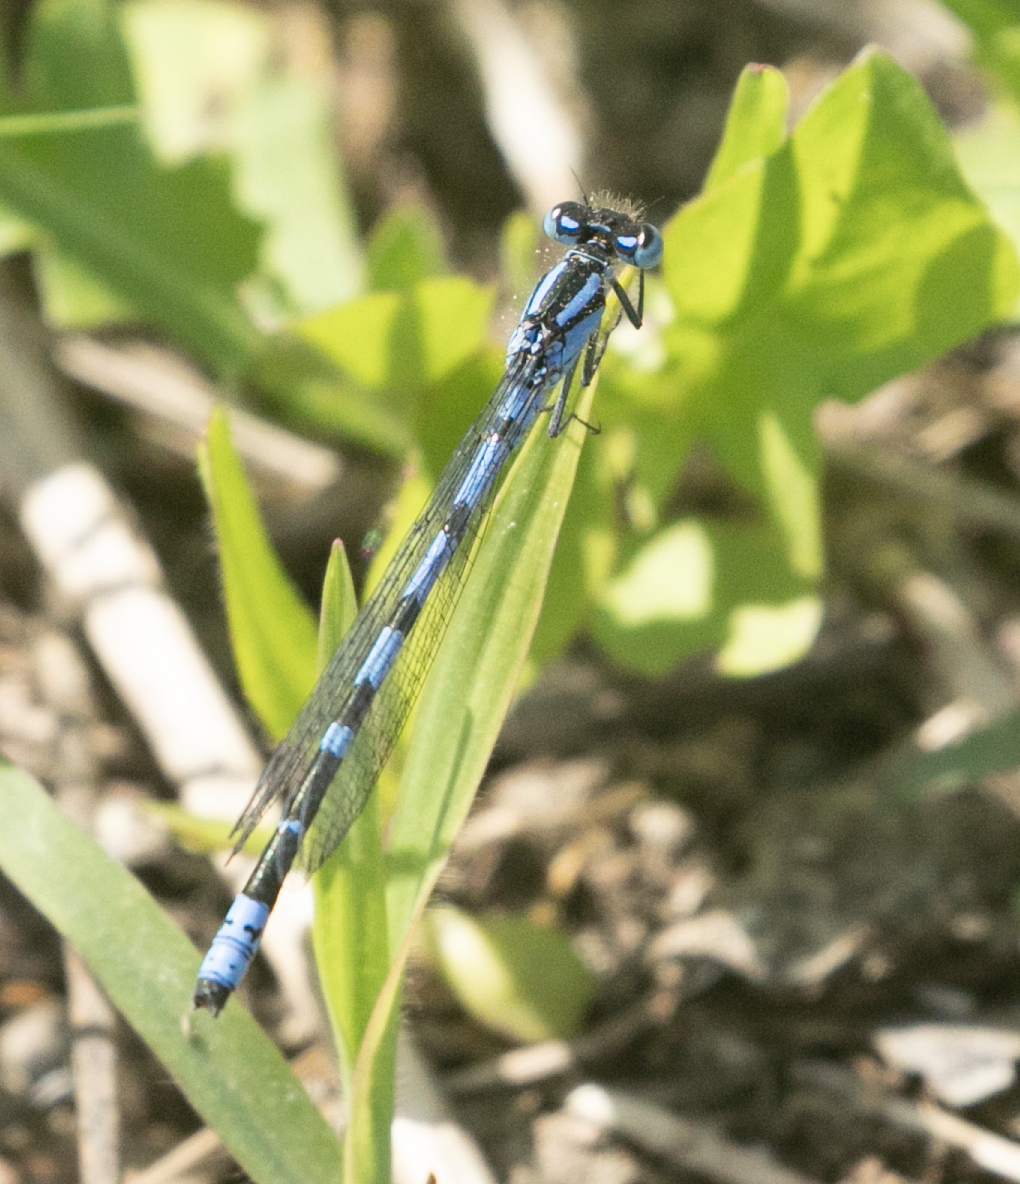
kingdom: Animalia
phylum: Arthropoda
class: Insecta
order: Odonata
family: Coenagrionidae
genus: Enallagma
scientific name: Enallagma cyathigerum
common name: Common blue damselfly
